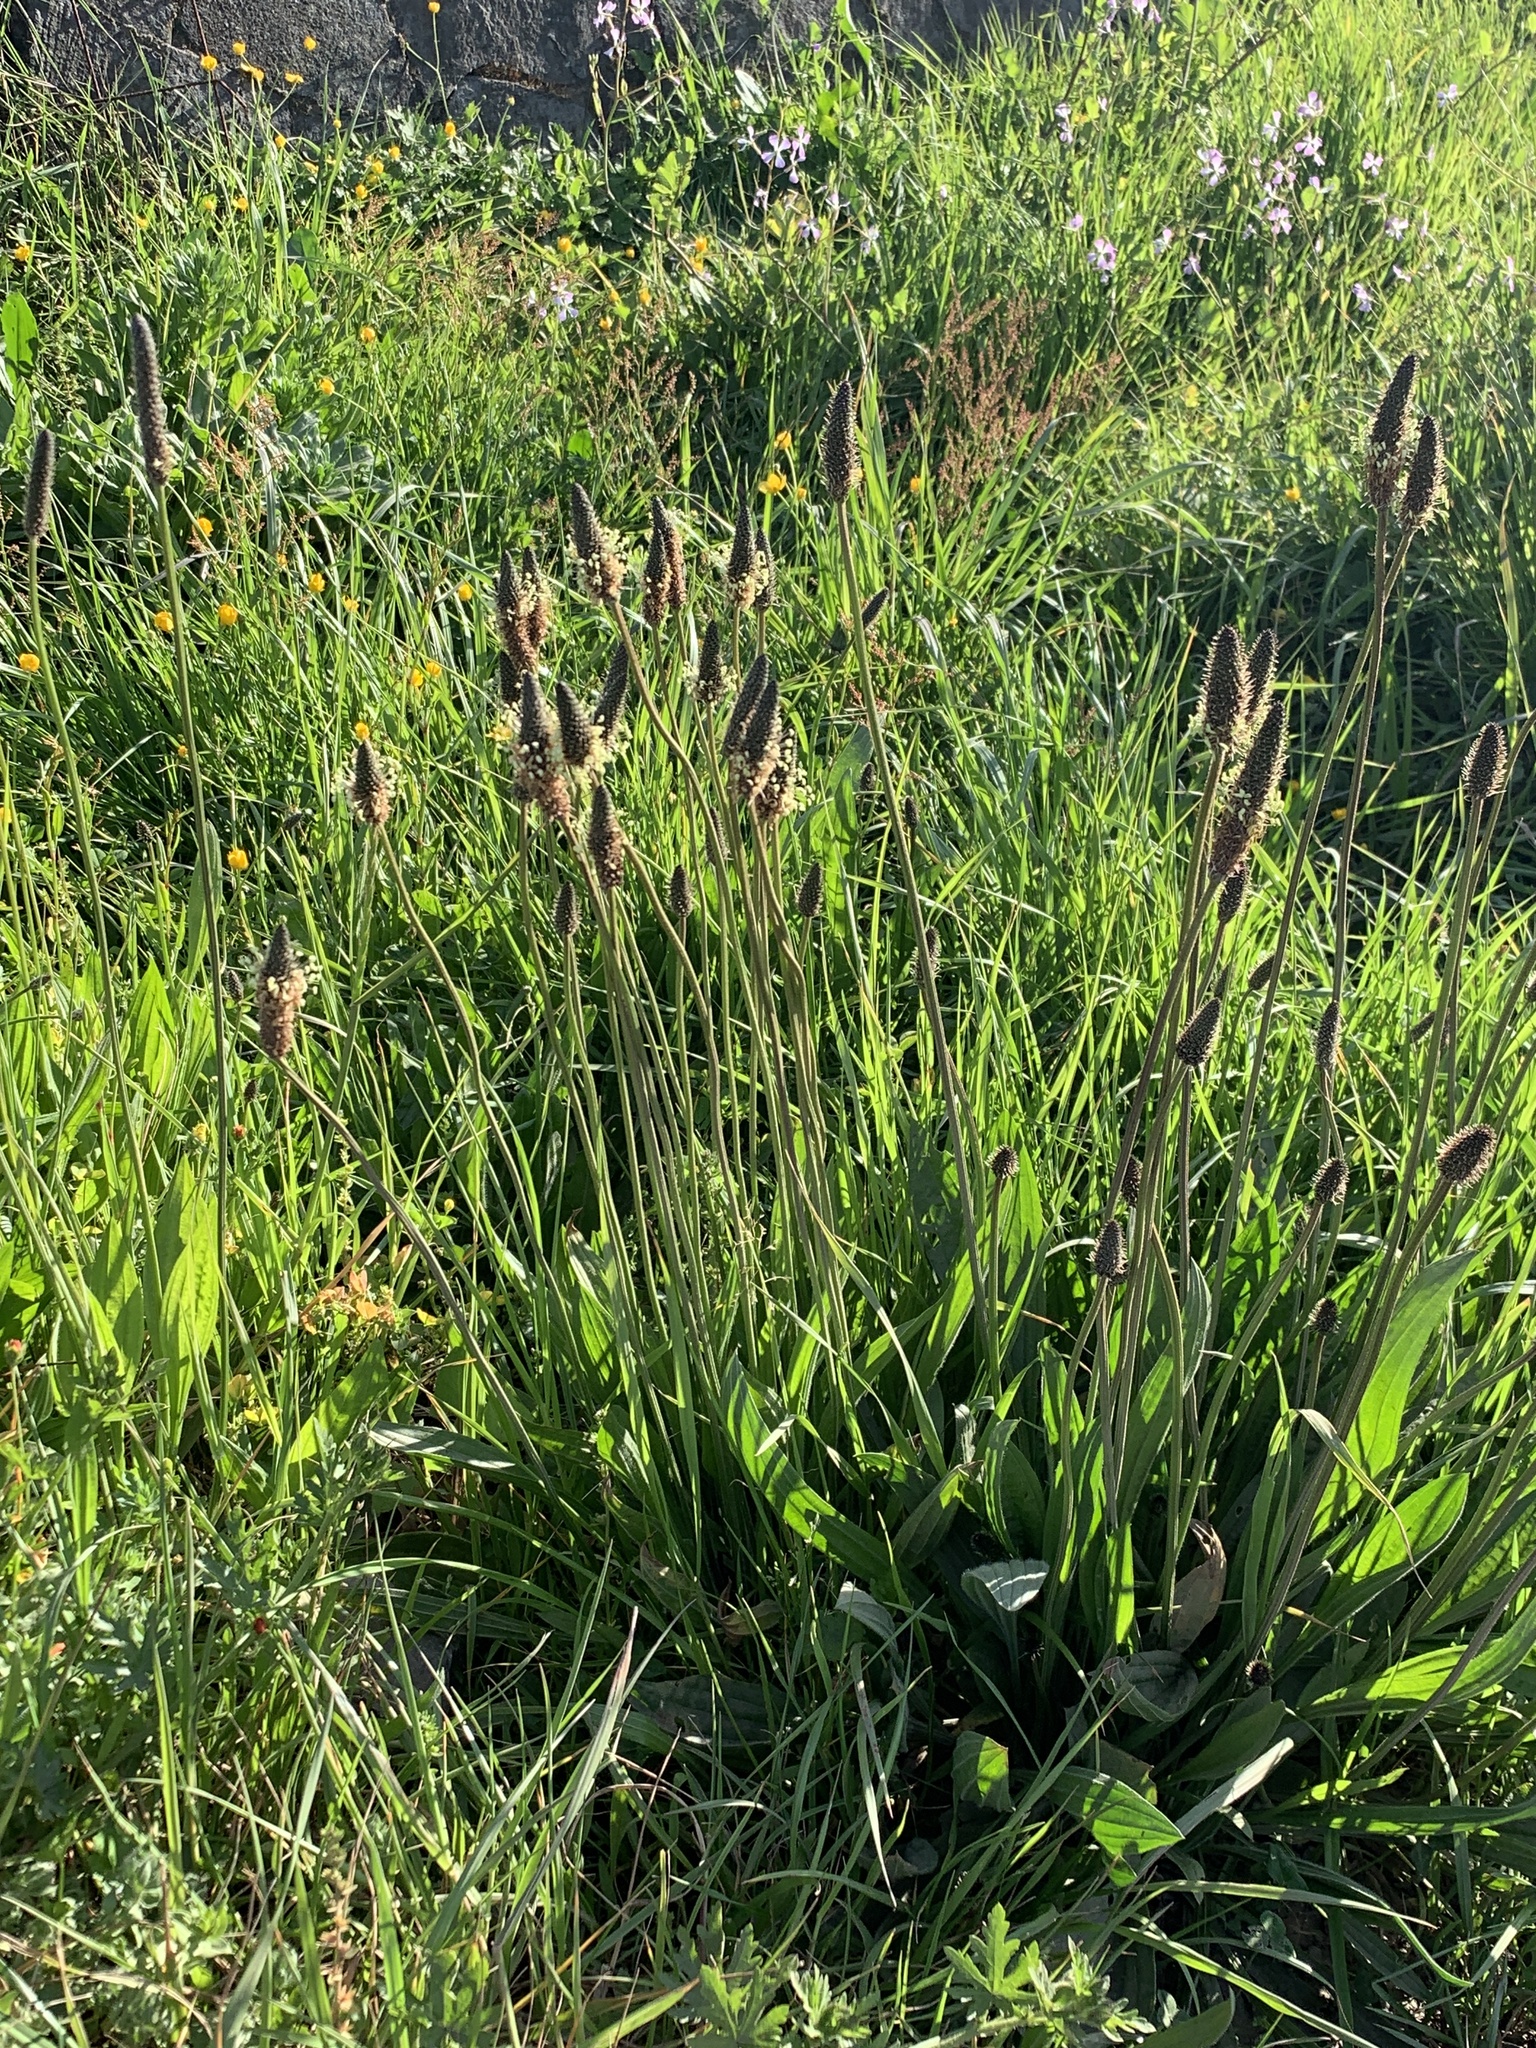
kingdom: Plantae
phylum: Tracheophyta
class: Magnoliopsida
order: Lamiales
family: Plantaginaceae
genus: Plantago
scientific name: Plantago lanceolata
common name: Ribwort plantain
